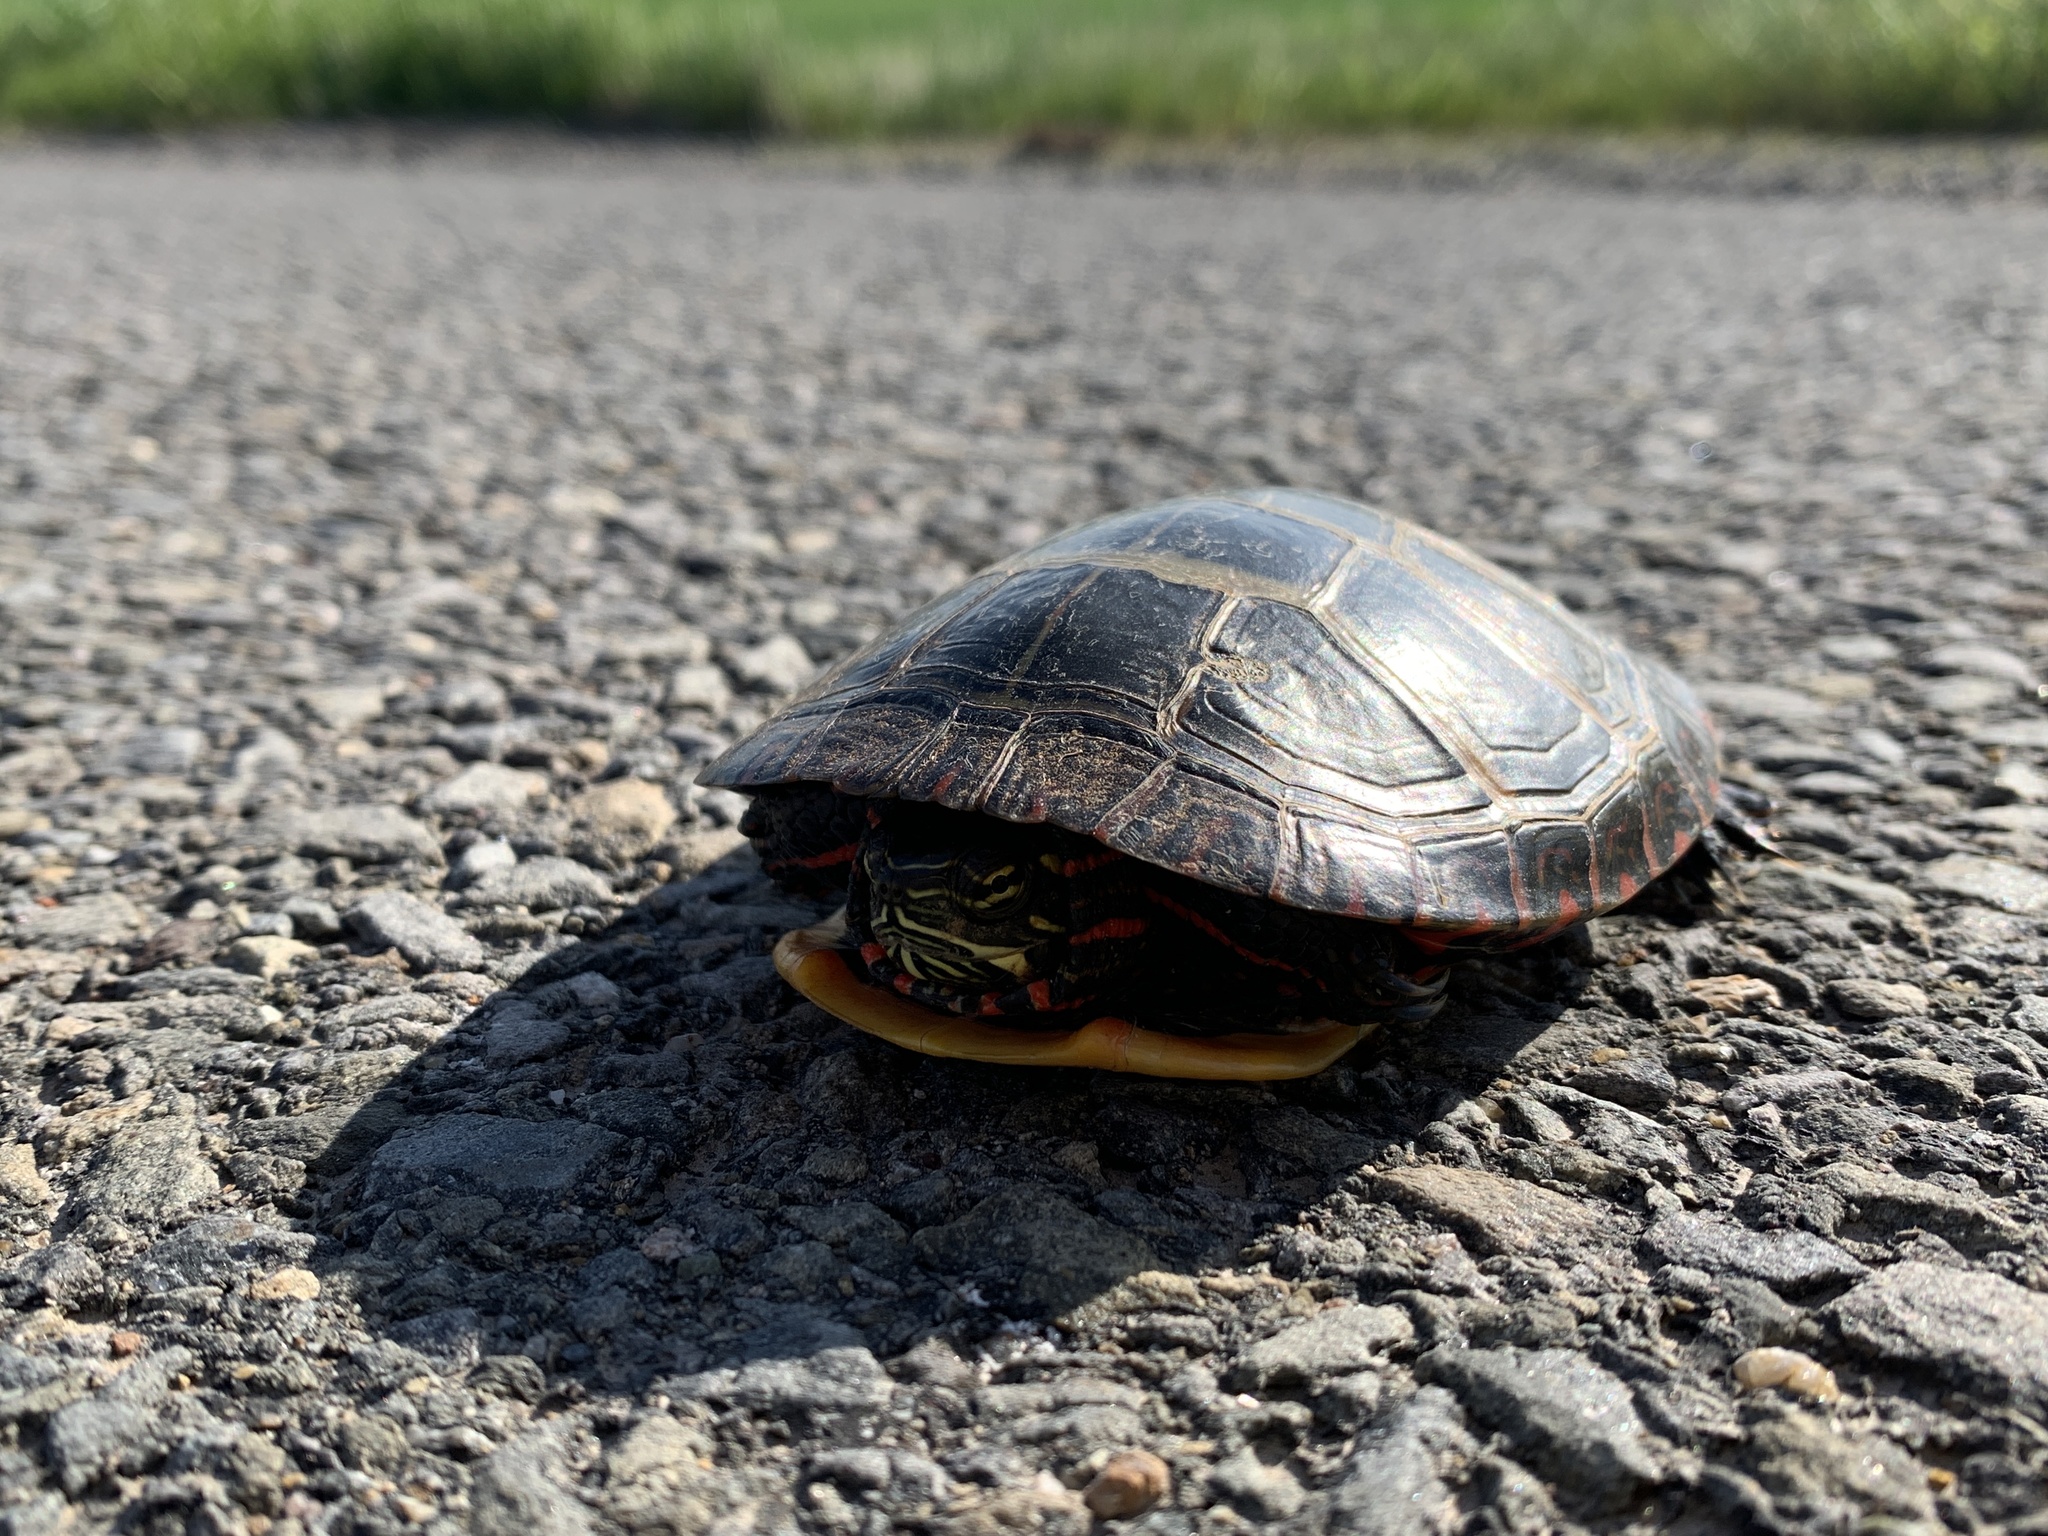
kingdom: Animalia
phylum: Chordata
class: Testudines
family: Emydidae
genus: Chrysemys
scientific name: Chrysemys picta
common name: Painted turtle
